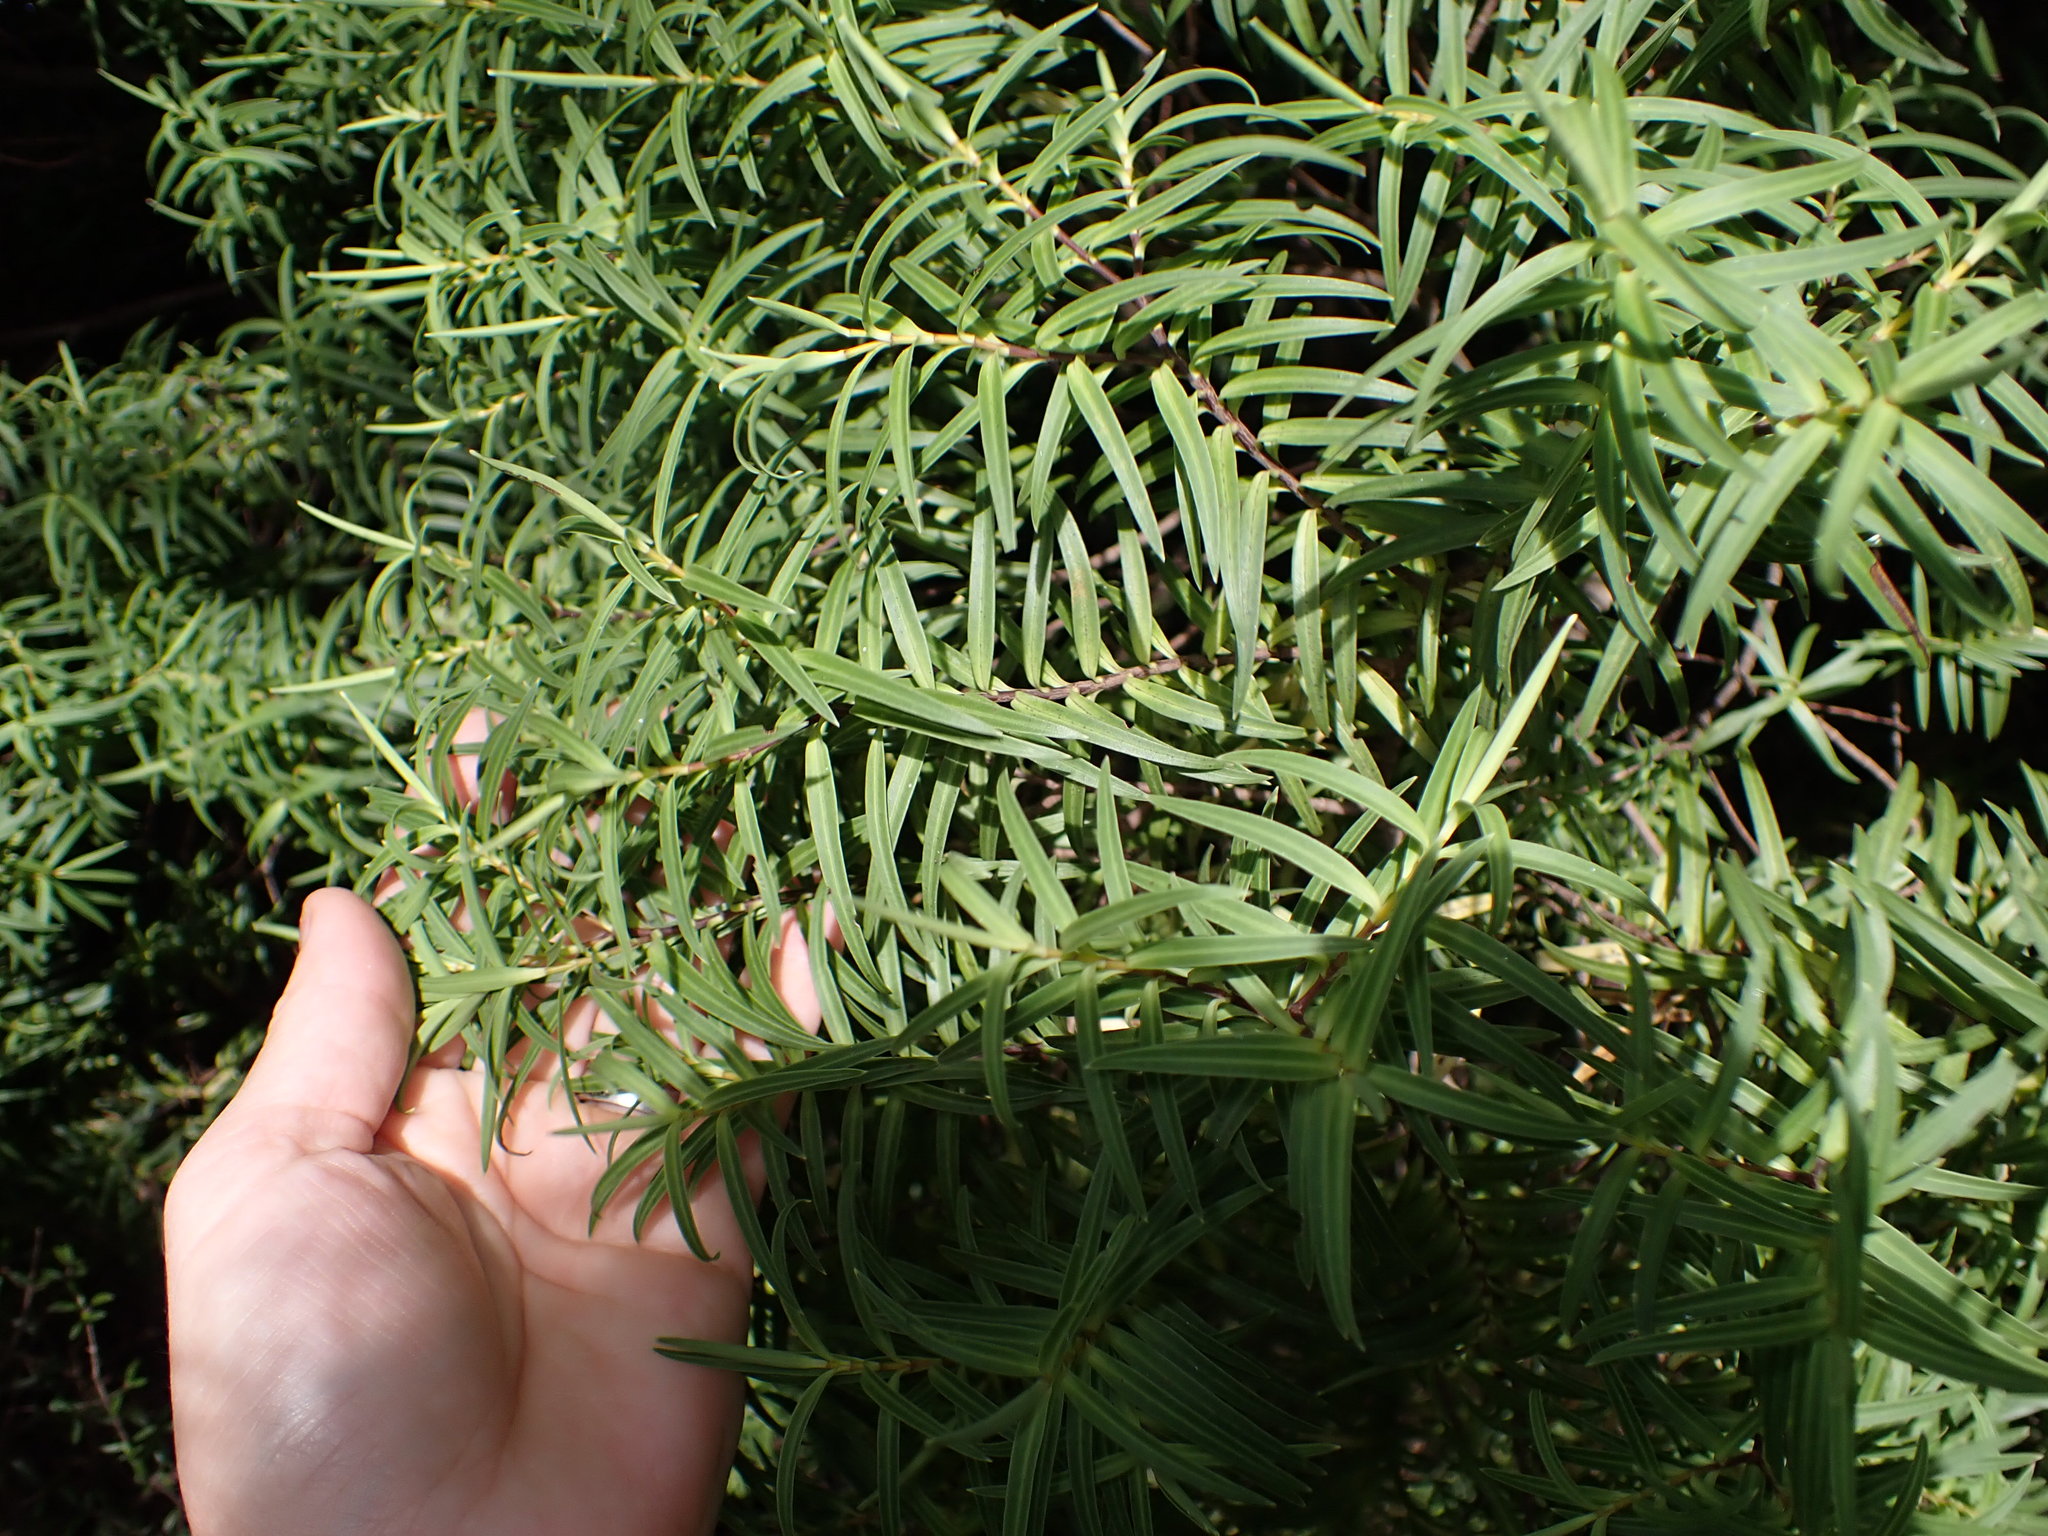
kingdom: Plantae
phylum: Tracheophyta
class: Magnoliopsida
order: Lamiales
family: Plantaginaceae
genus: Veronica
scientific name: Veronica parviflora
